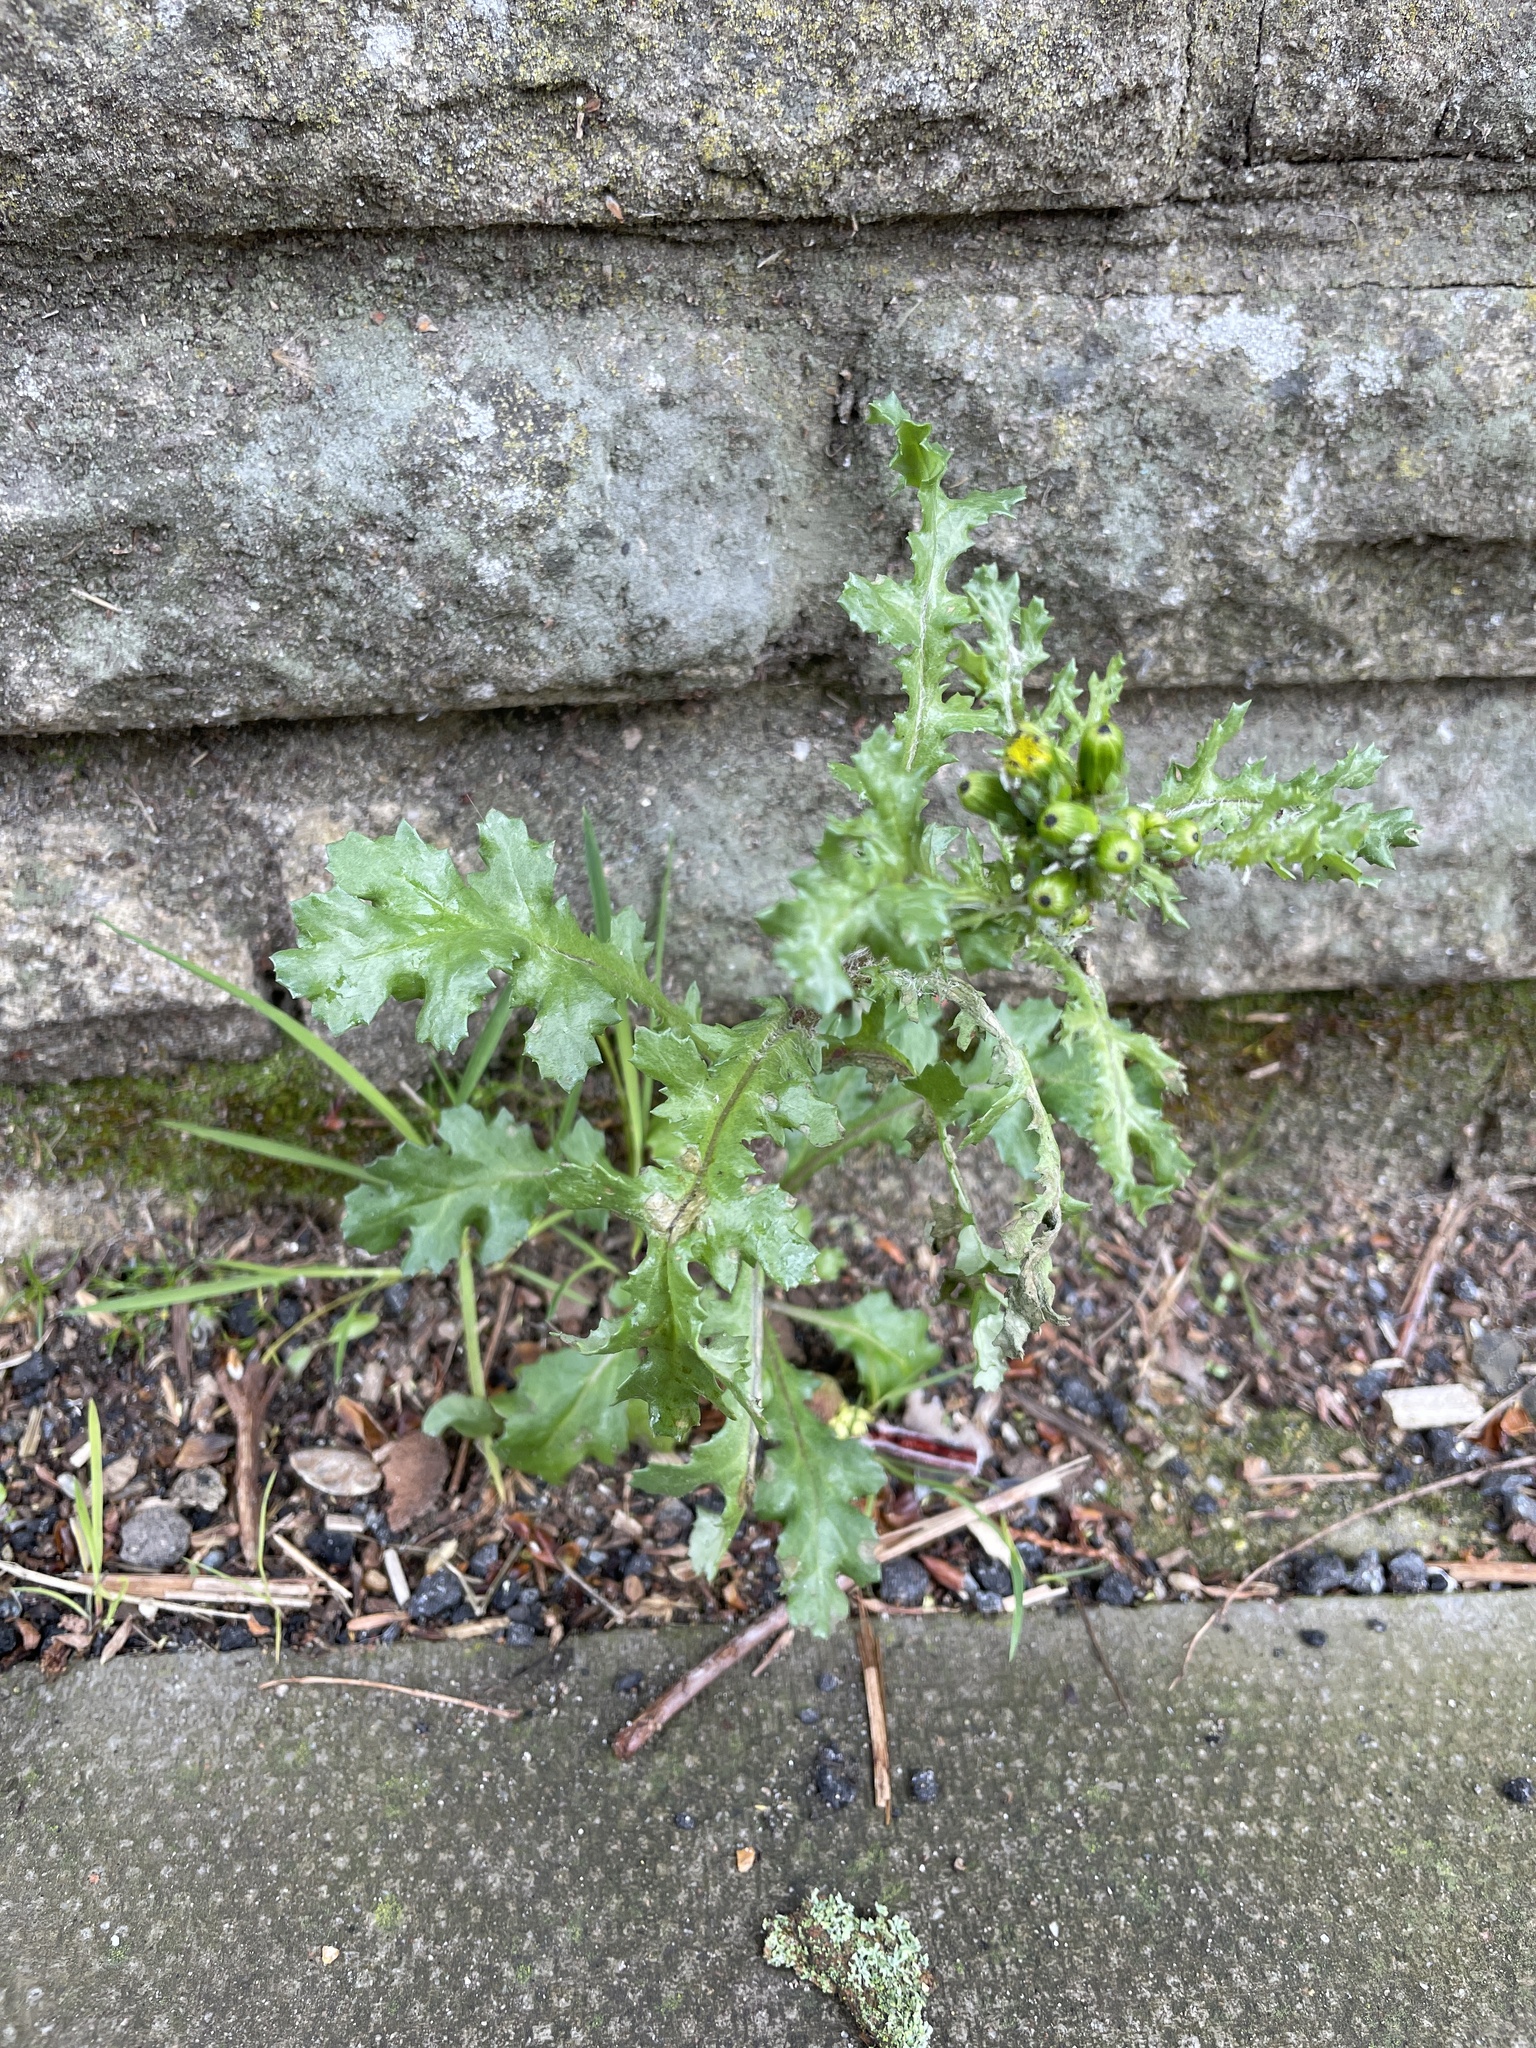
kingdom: Plantae
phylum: Tracheophyta
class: Magnoliopsida
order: Asterales
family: Asteraceae
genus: Senecio
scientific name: Senecio vulgaris
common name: Old-man-in-the-spring
